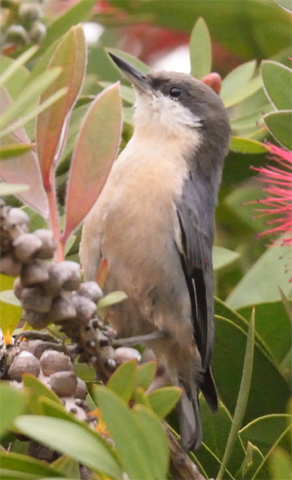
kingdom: Animalia
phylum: Chordata
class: Aves
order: Passeriformes
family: Sittidae
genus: Sitta
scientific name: Sitta pygmaea
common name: Pygmy nuthatch
